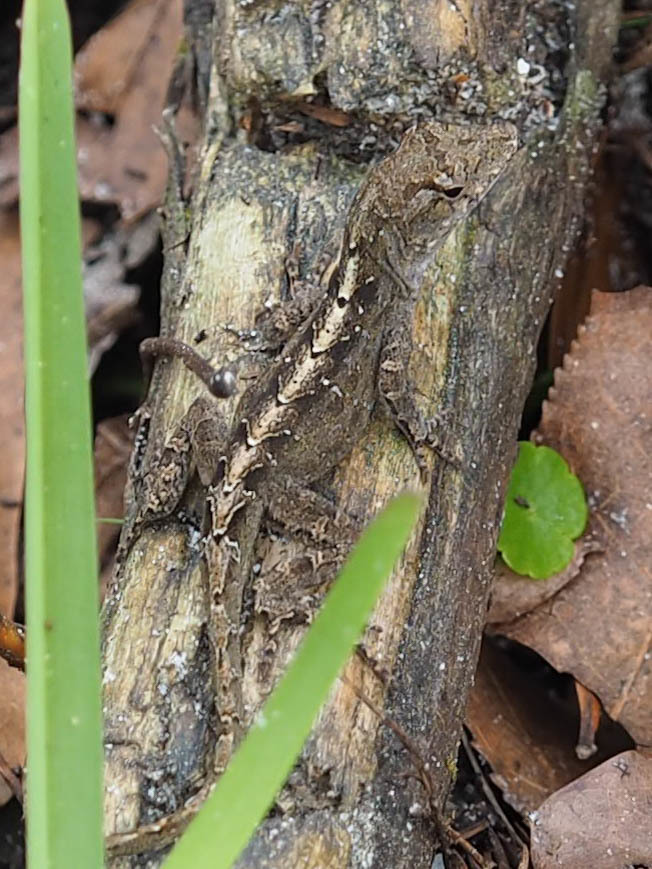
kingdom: Animalia
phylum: Chordata
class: Squamata
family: Dactyloidae
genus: Anolis
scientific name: Anolis sagrei
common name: Brown anole
